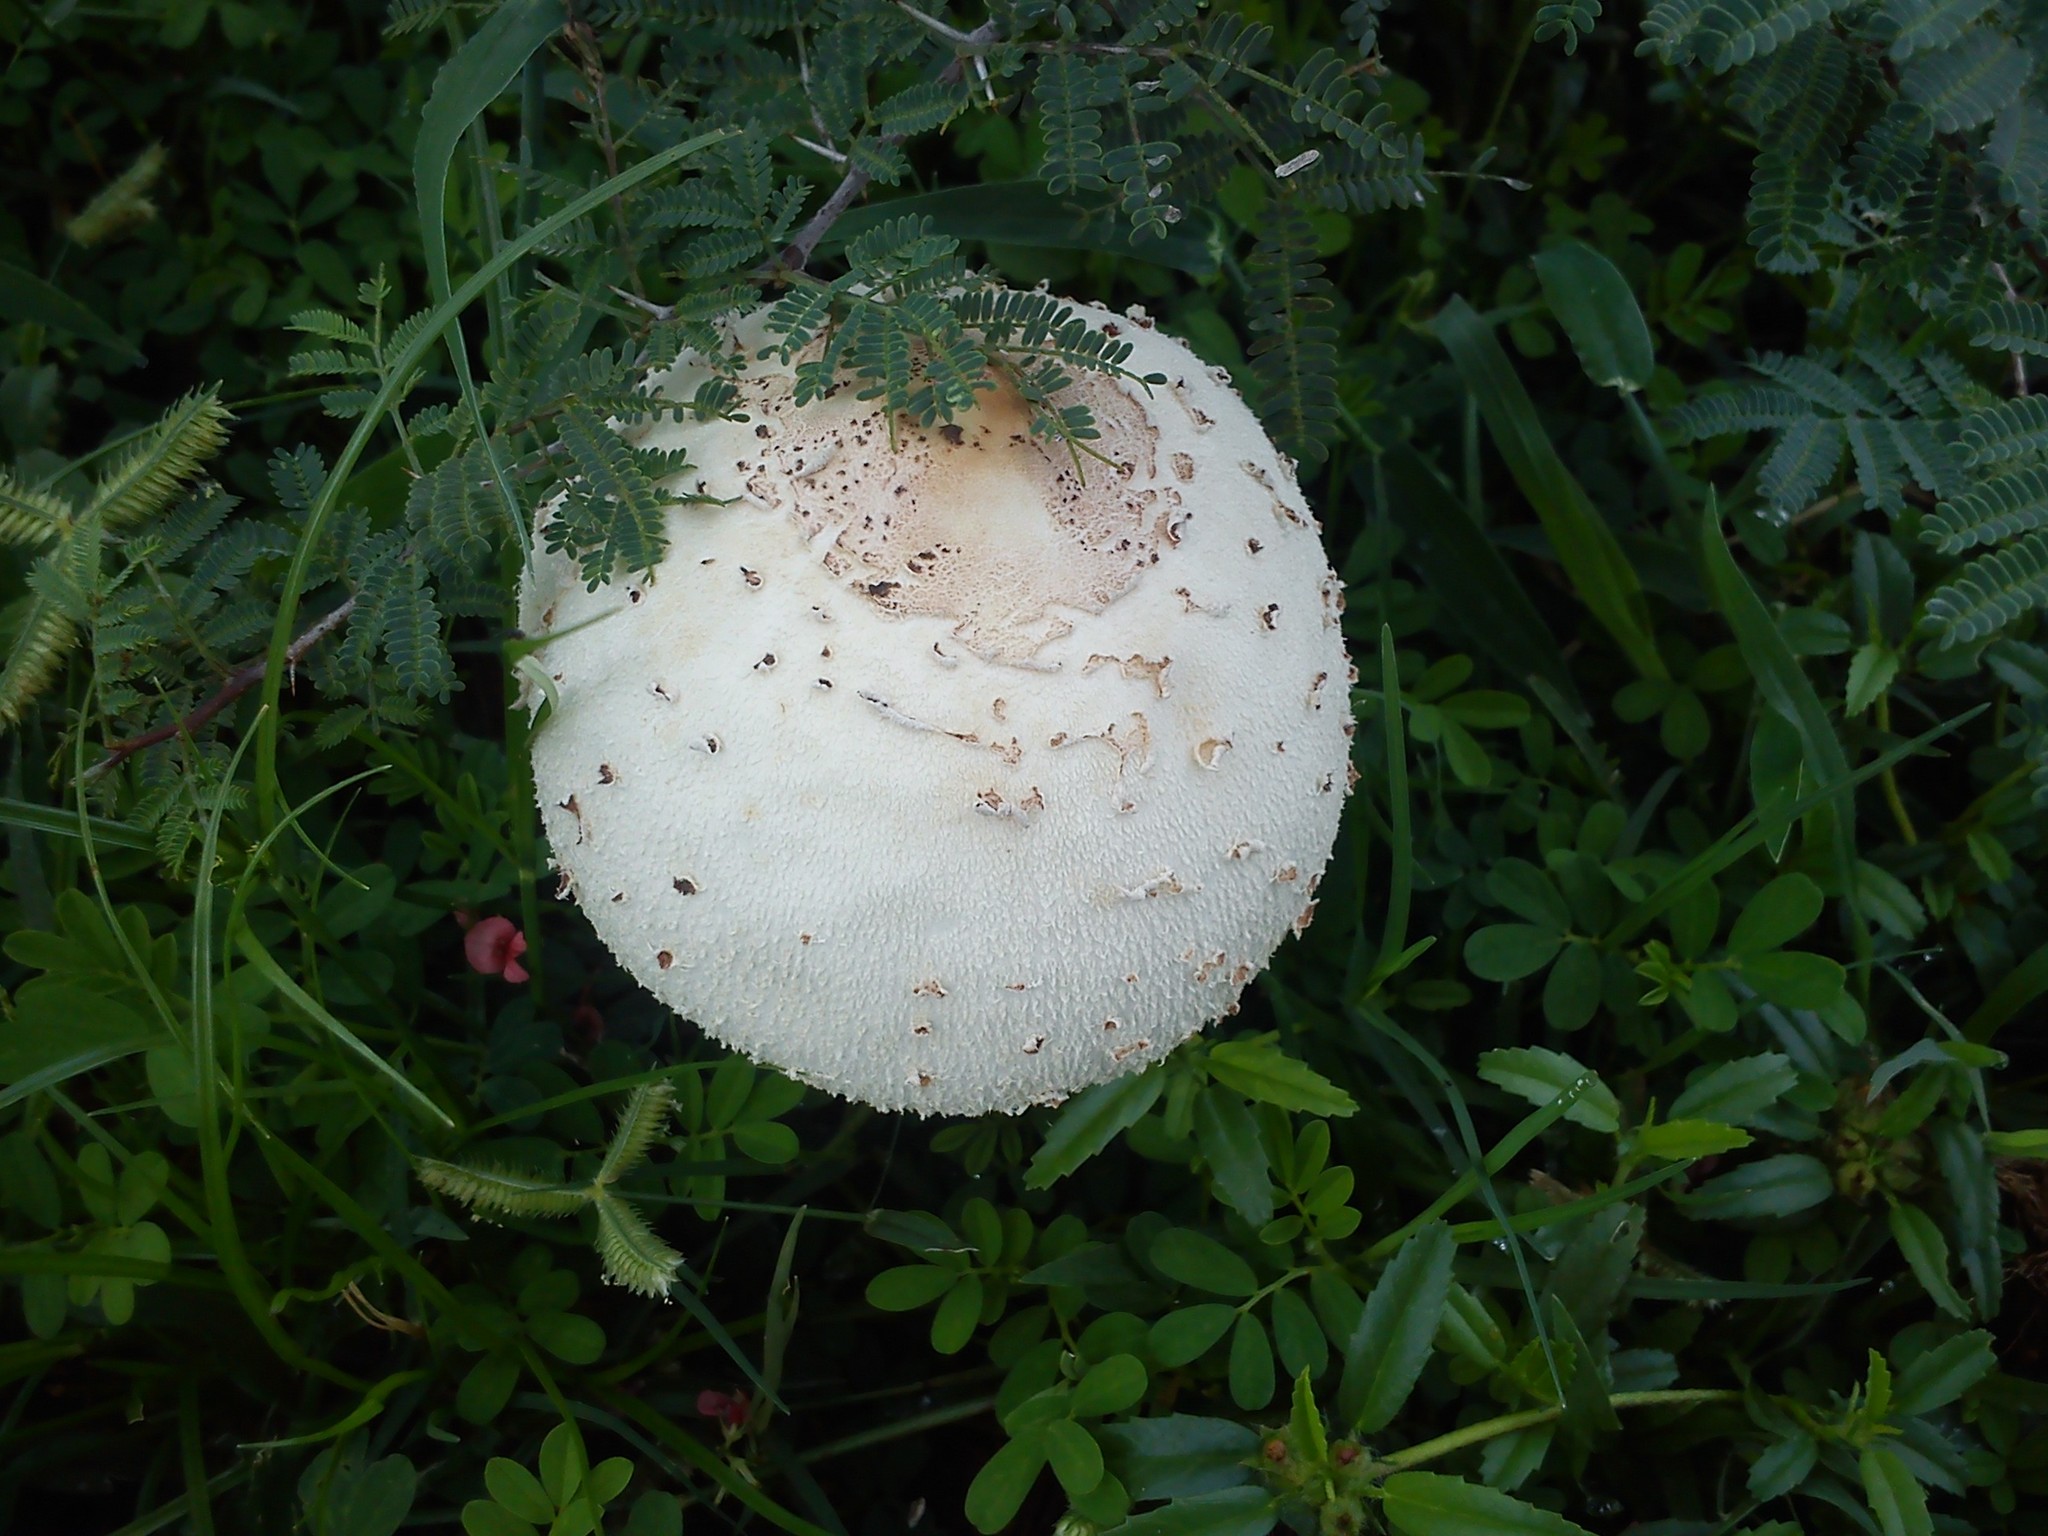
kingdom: Fungi
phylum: Basidiomycota
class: Agaricomycetes
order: Agaricales
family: Agaricaceae
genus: Chlorophyllum
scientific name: Chlorophyllum molybdites
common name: False parasol
